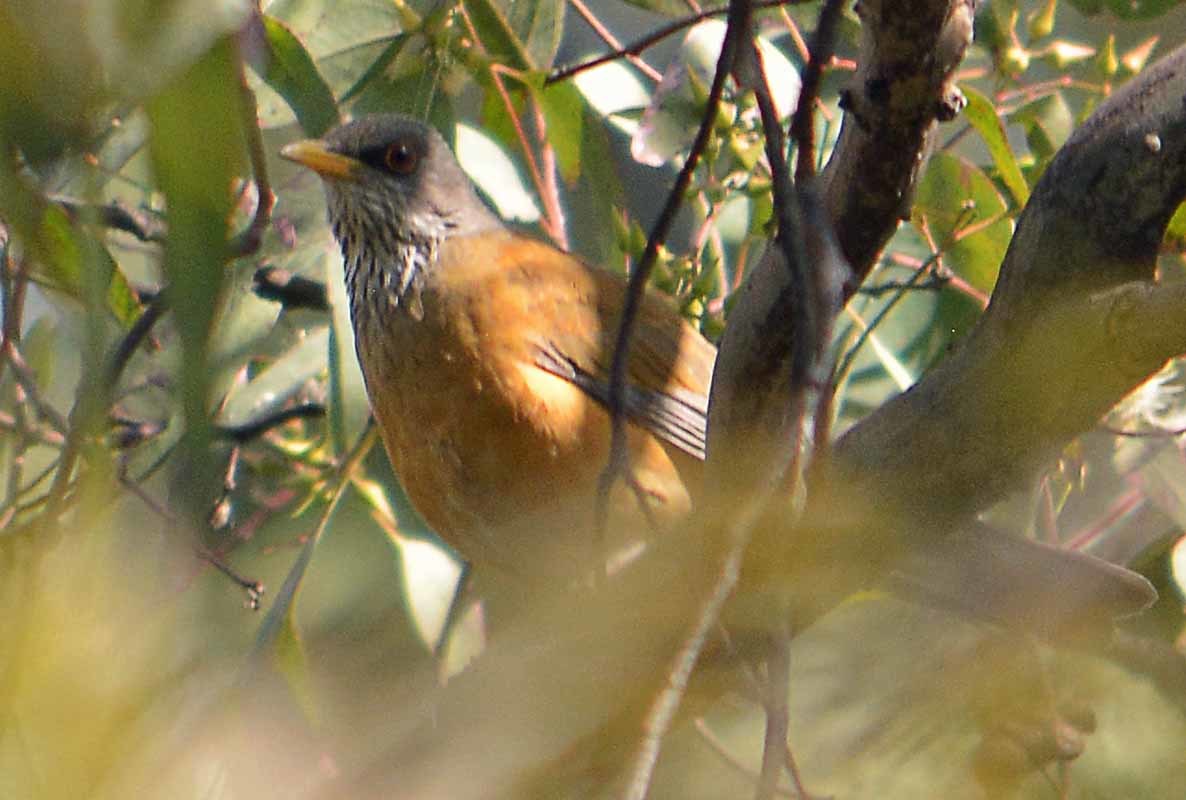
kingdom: Animalia
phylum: Chordata
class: Aves
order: Passeriformes
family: Turdidae
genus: Turdus
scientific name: Turdus rufopalliatus
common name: Rufous-backed robin
